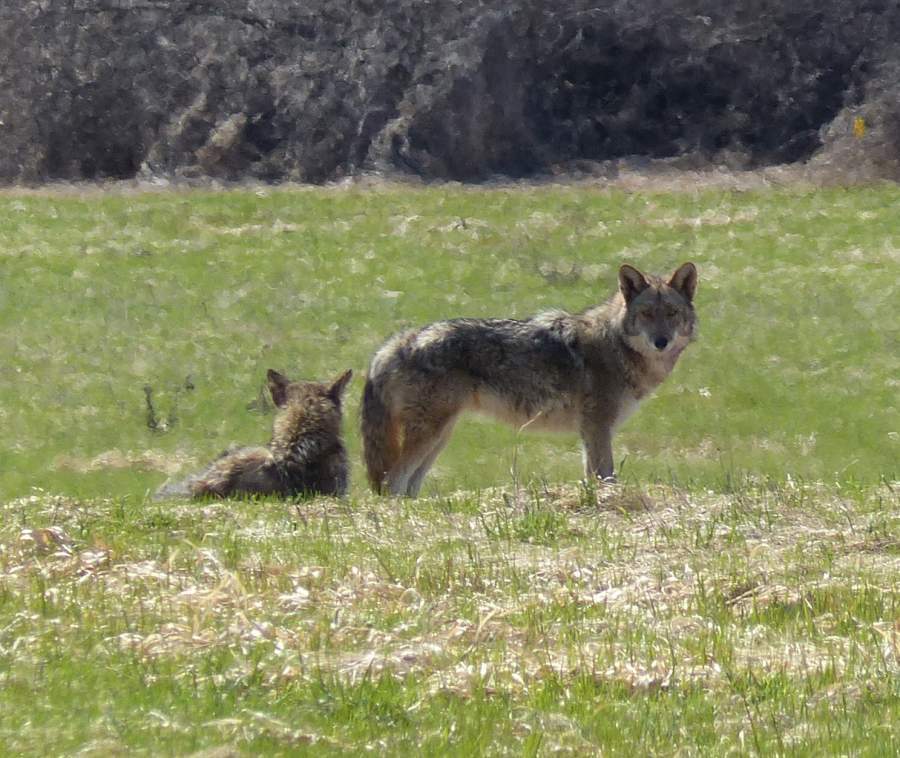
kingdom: Animalia
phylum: Chordata
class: Mammalia
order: Carnivora
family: Canidae
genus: Canis
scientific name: Canis latrans
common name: Coyote
